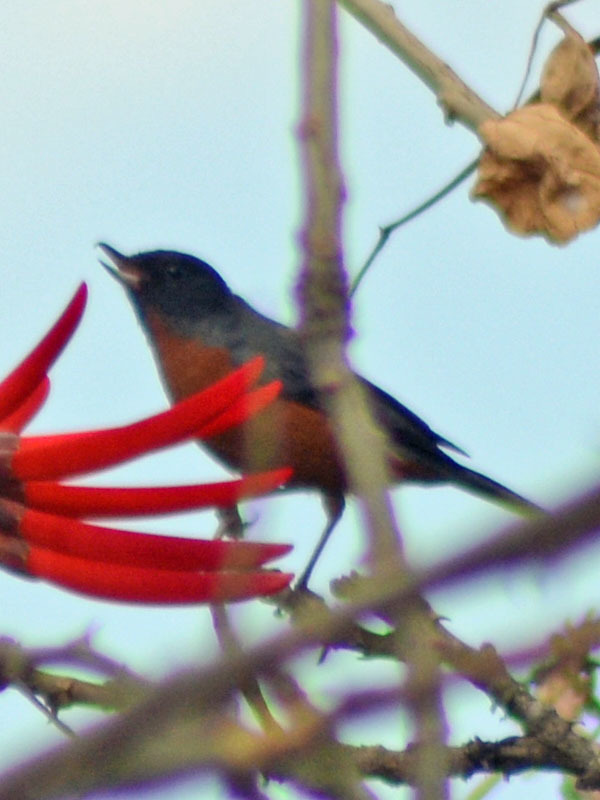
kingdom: Animalia
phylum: Chordata
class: Aves
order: Passeriformes
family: Thraupidae
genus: Diglossa
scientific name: Diglossa baritula
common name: Cinnamon-bellied flowerpiercer
